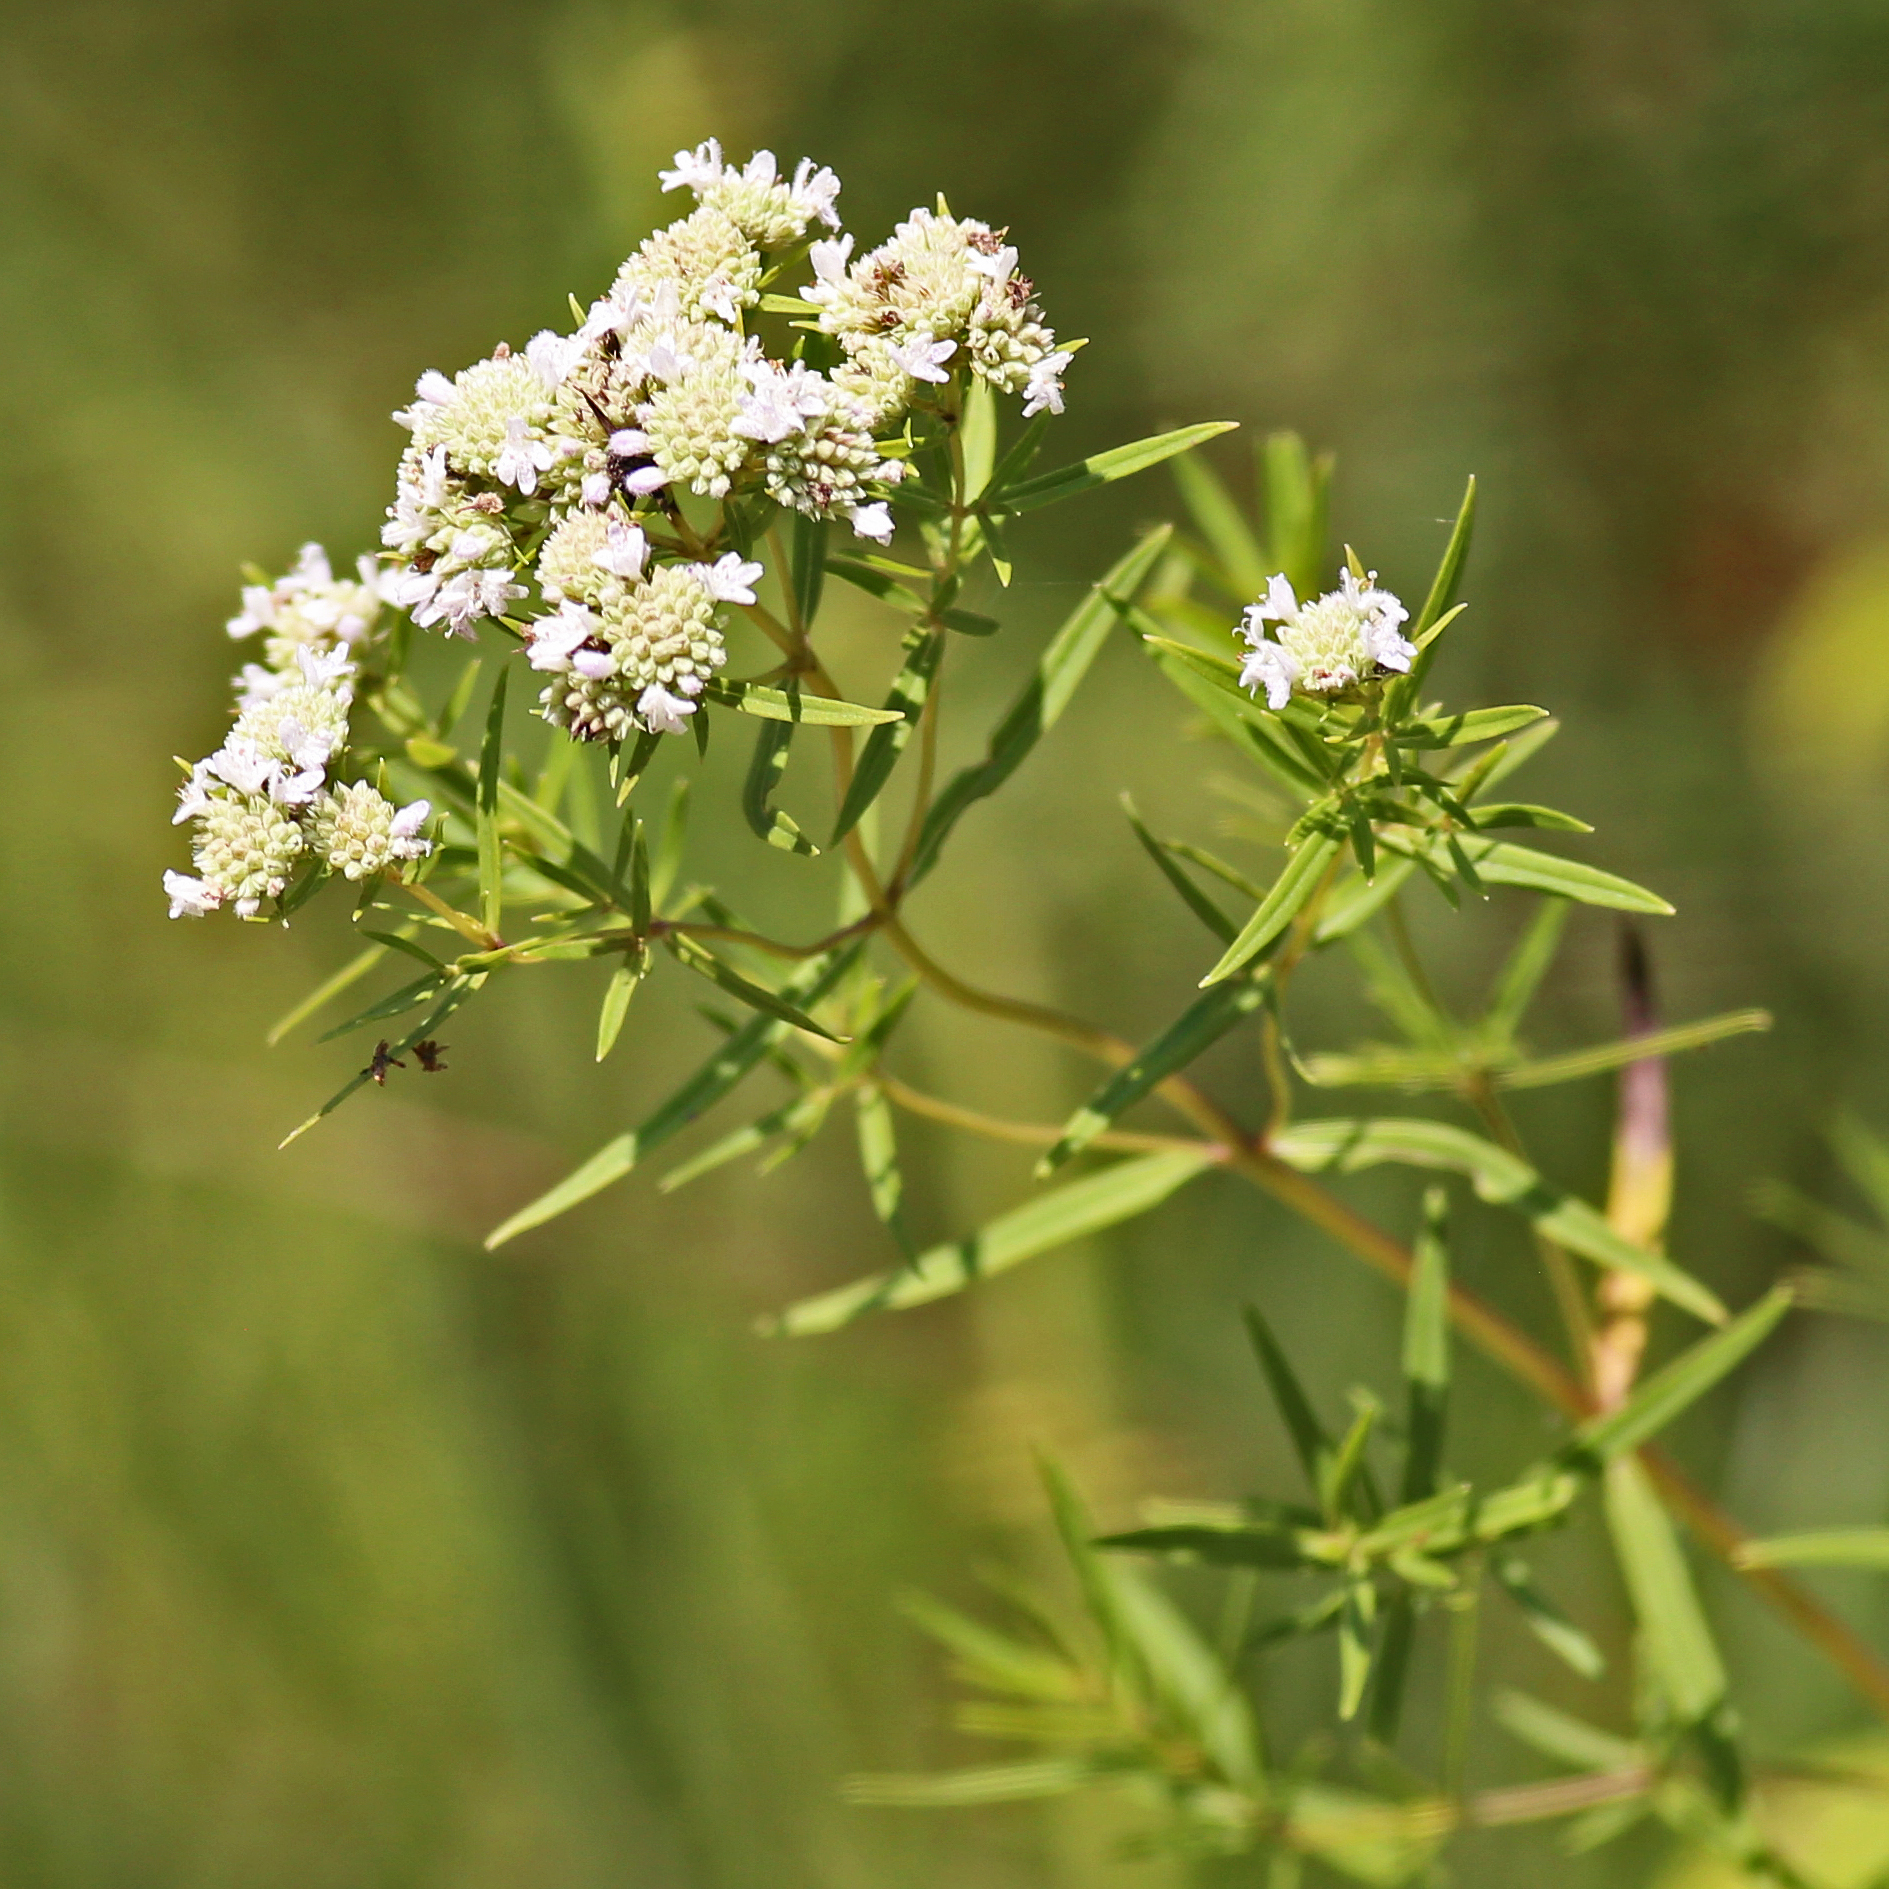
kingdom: Plantae
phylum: Tracheophyta
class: Magnoliopsida
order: Lamiales
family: Lamiaceae
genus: Pycnanthemum
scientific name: Pycnanthemum tenuifolium
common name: Narrow-leaf mountain-mint
